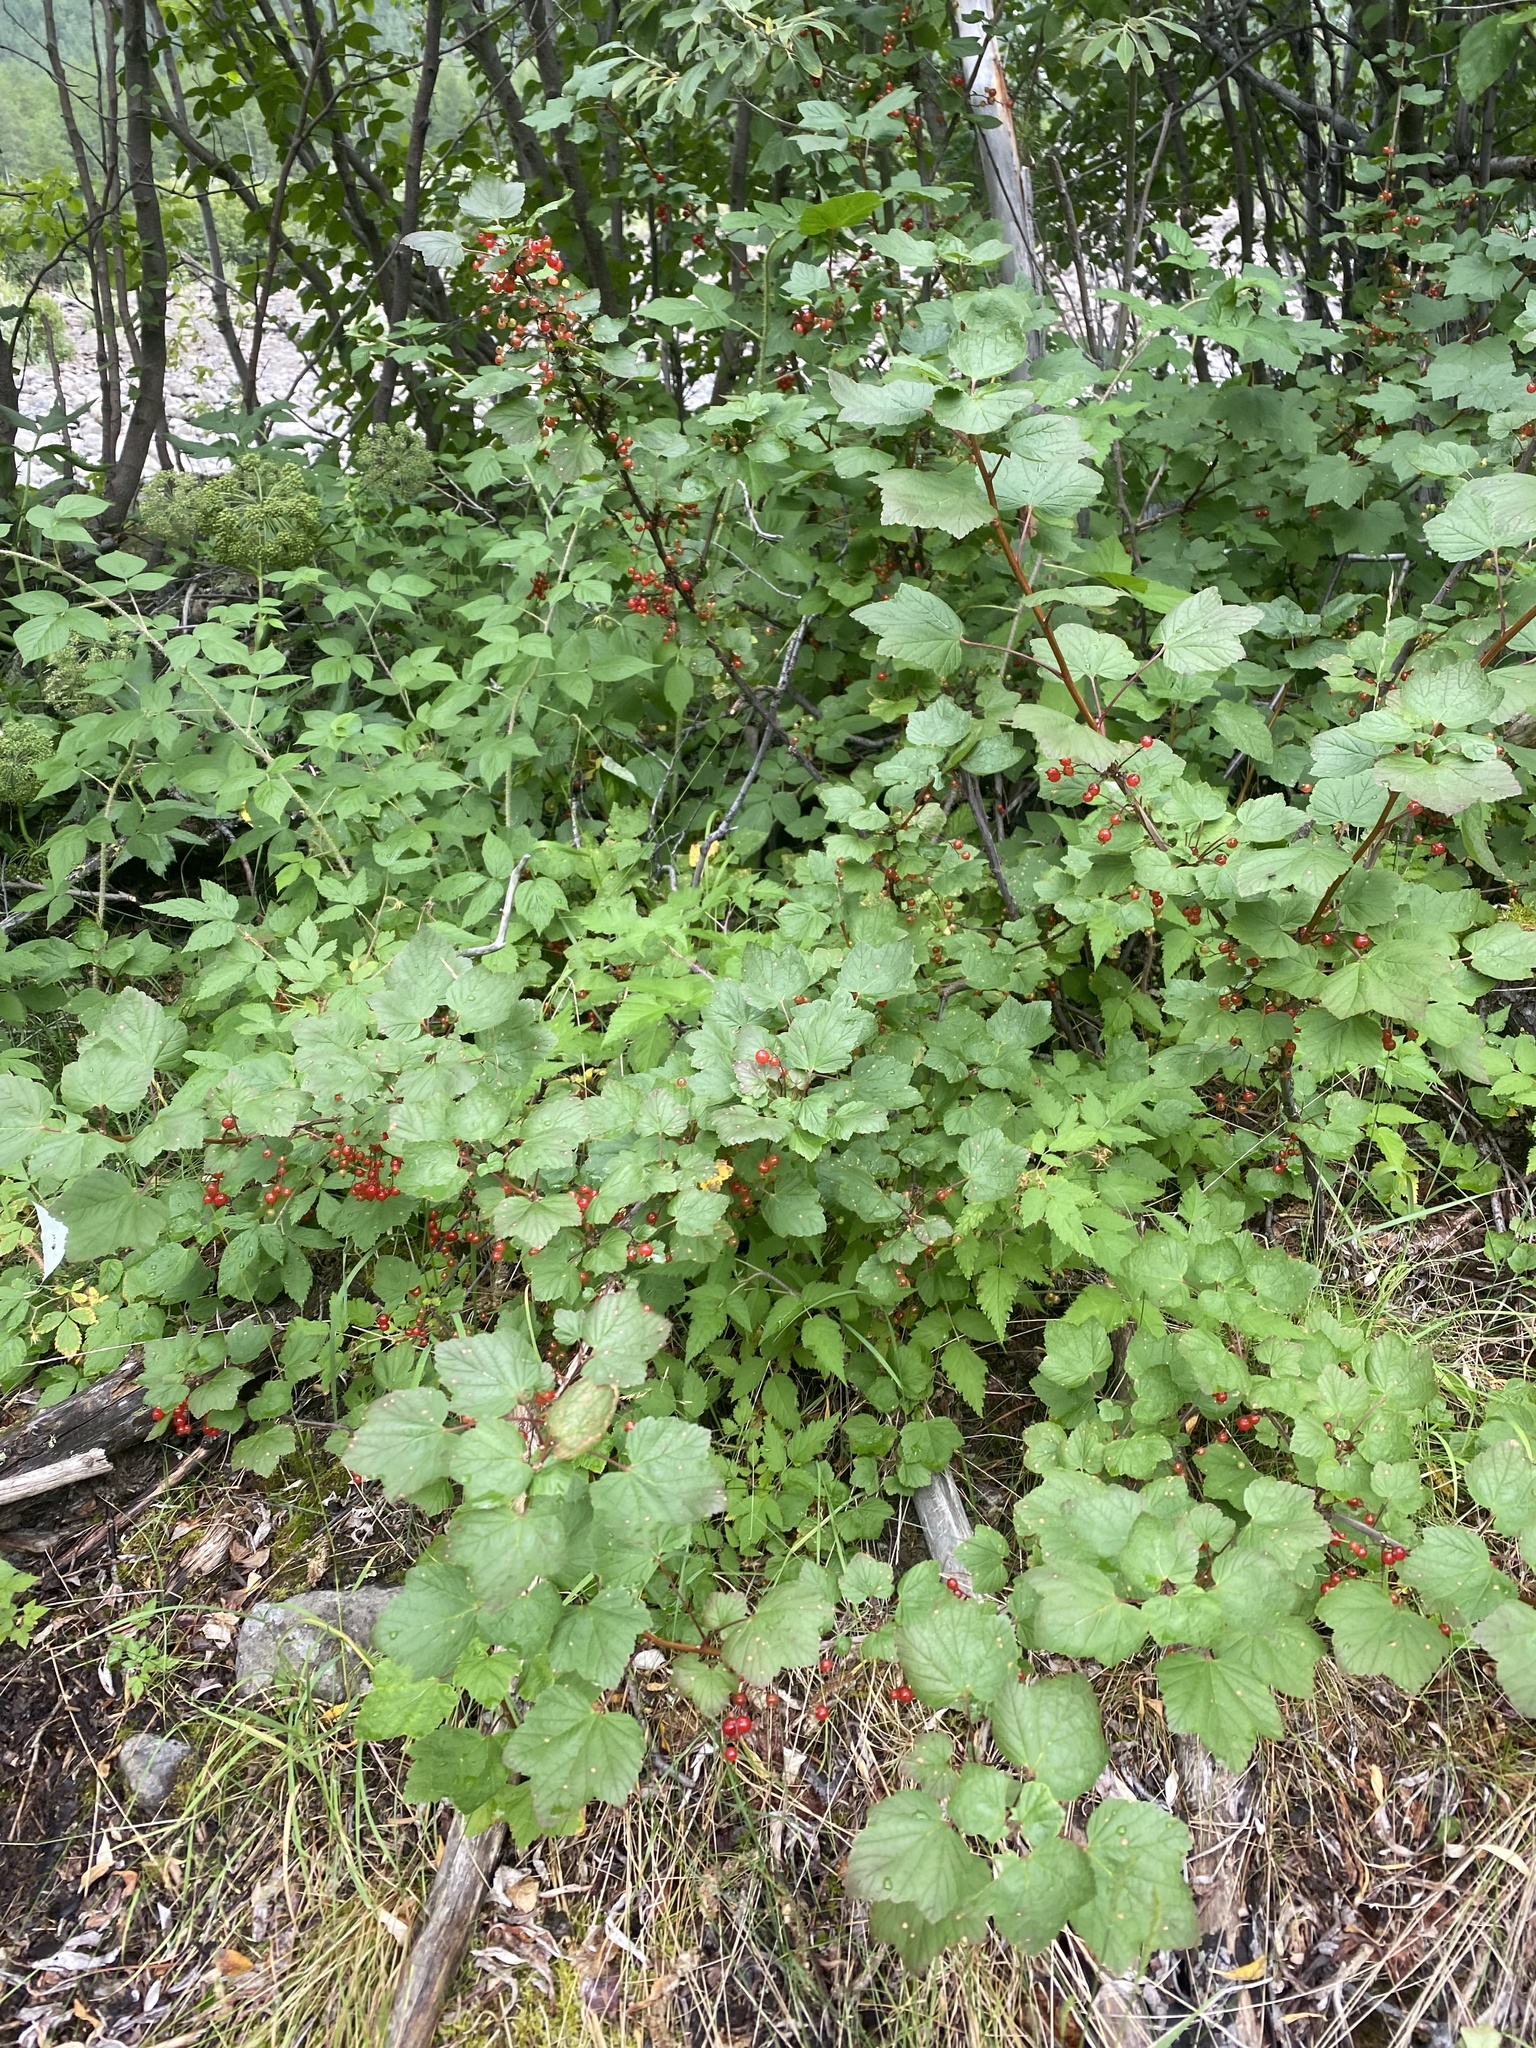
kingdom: Plantae
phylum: Tracheophyta
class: Magnoliopsida
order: Saxifragales
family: Grossulariaceae
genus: Ribes
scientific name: Ribes triste
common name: Swamp red currant
